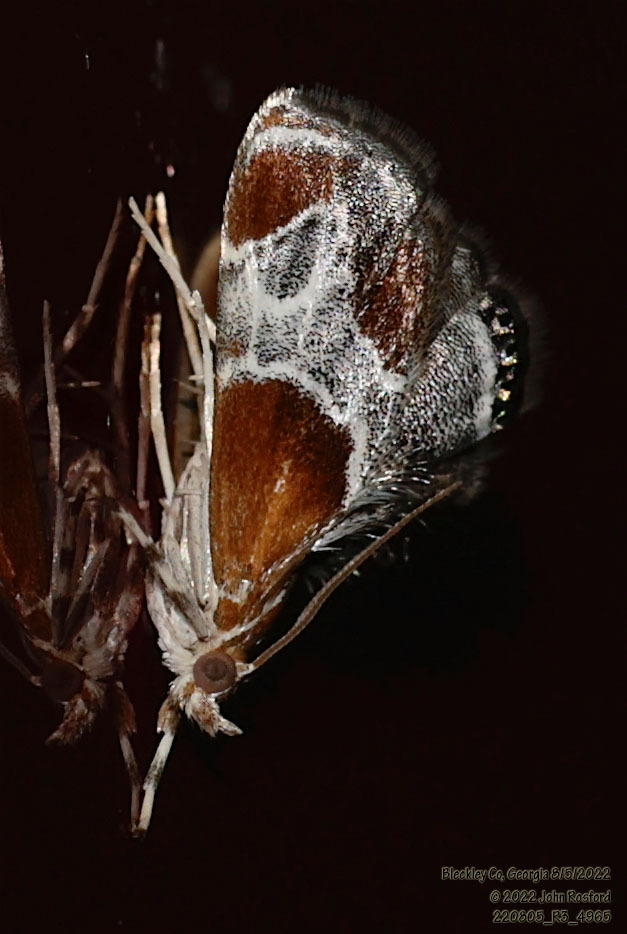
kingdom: Animalia
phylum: Arthropoda
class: Insecta
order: Lepidoptera
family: Crambidae
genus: Chalcoela
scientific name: Chalcoela pegasalis
